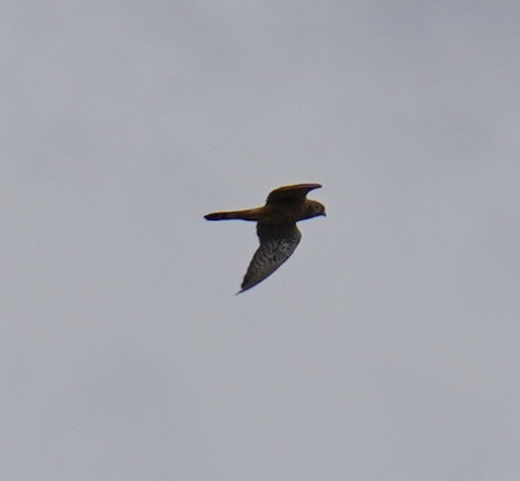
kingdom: Animalia
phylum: Chordata
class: Aves
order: Falconiformes
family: Falconidae
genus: Falco
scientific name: Falco tinnunculus
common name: Common kestrel
